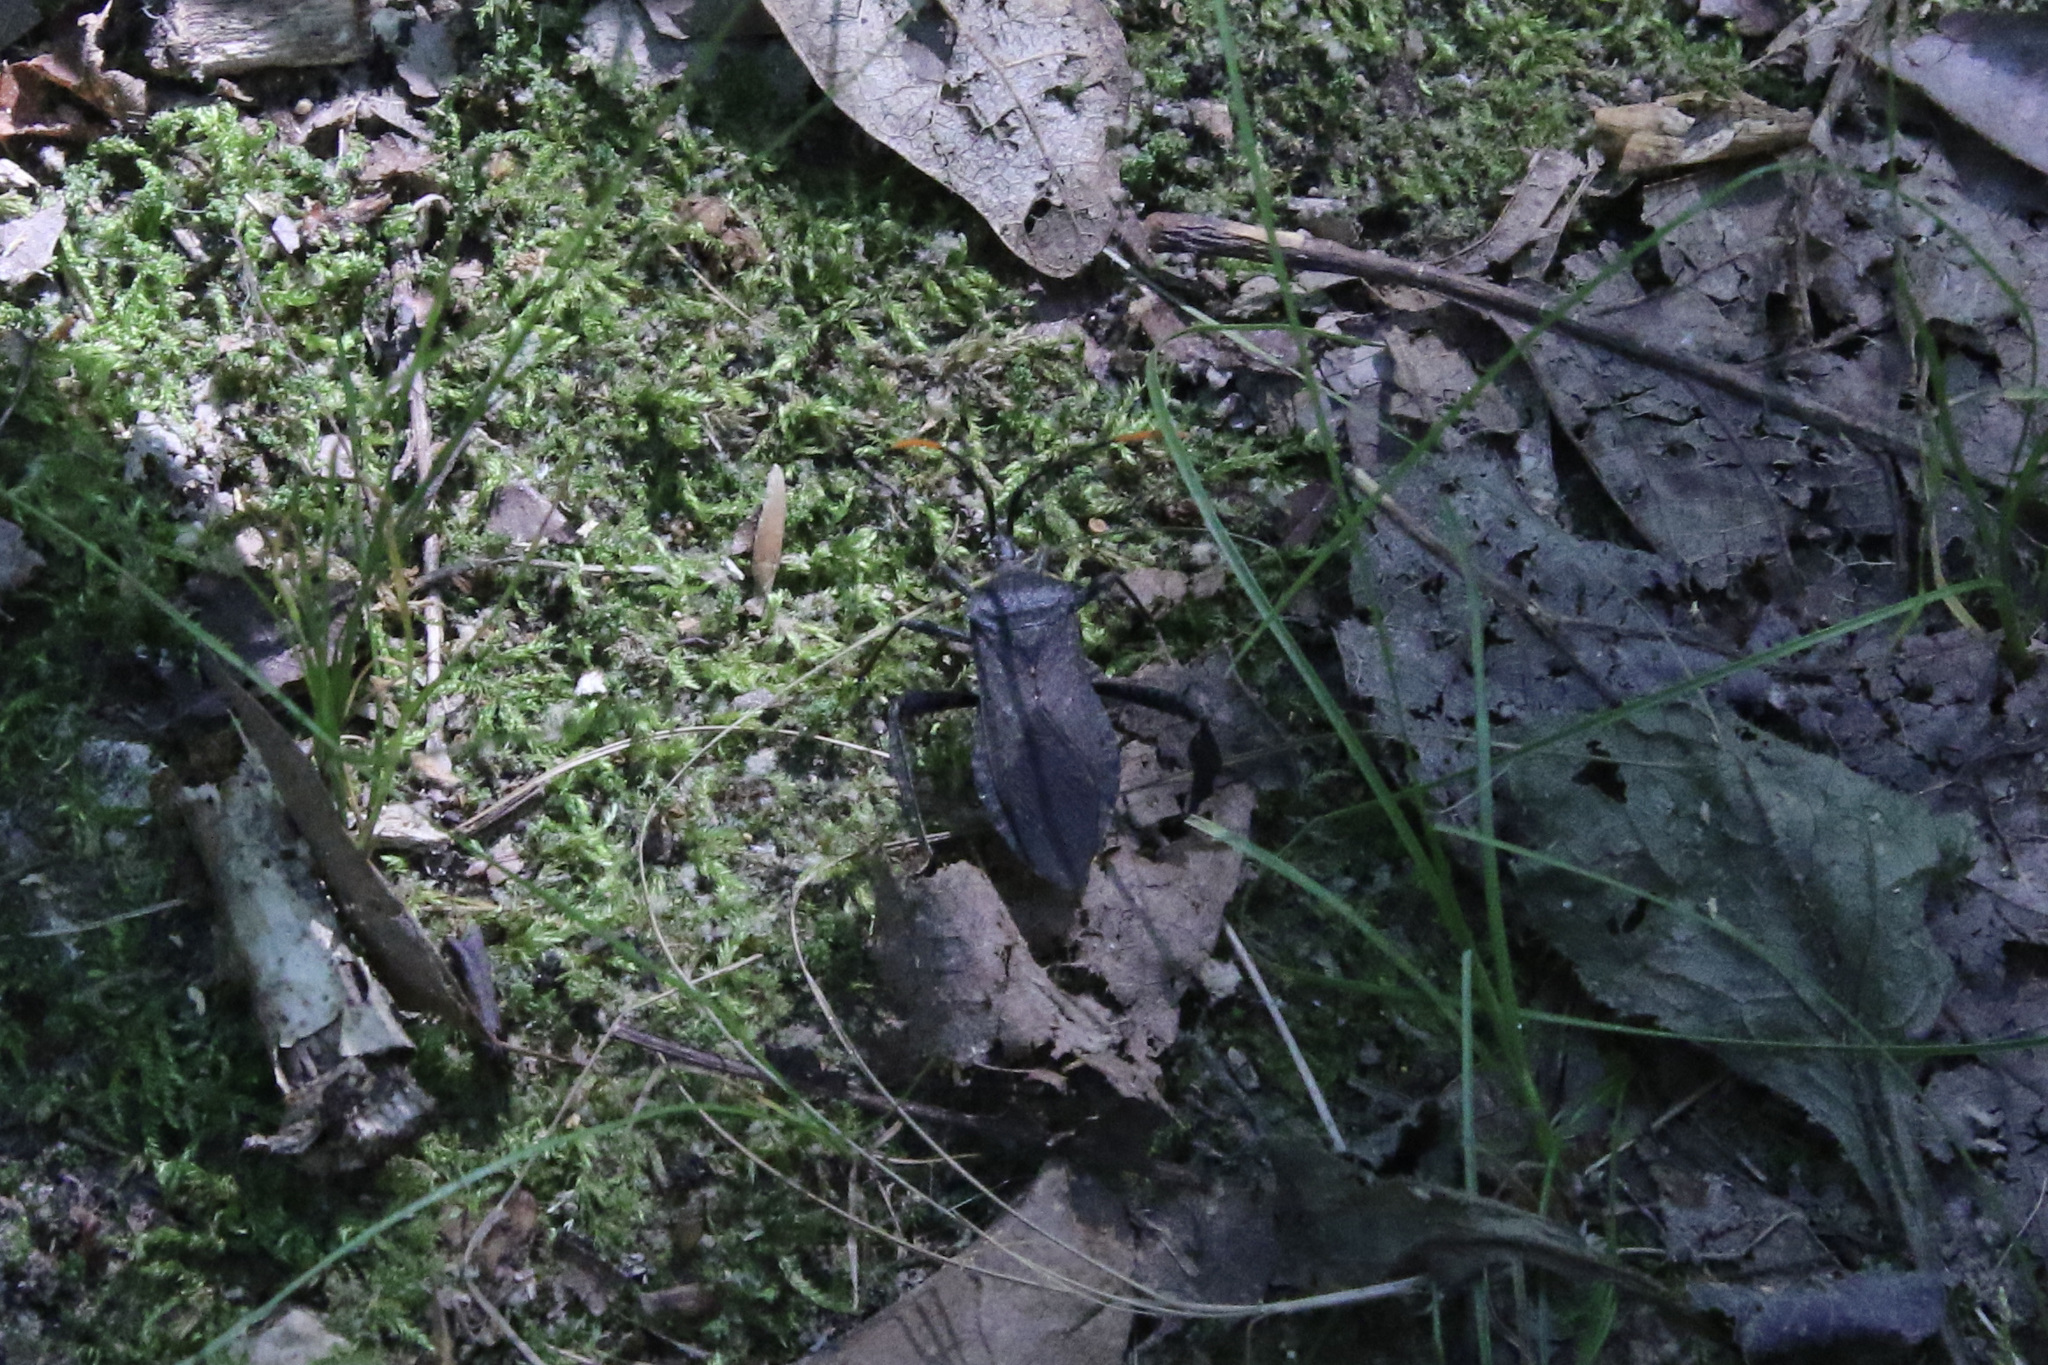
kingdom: Animalia
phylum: Arthropoda
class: Insecta
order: Hemiptera
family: Coreidae
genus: Acanthocephala
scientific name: Acanthocephala terminalis
